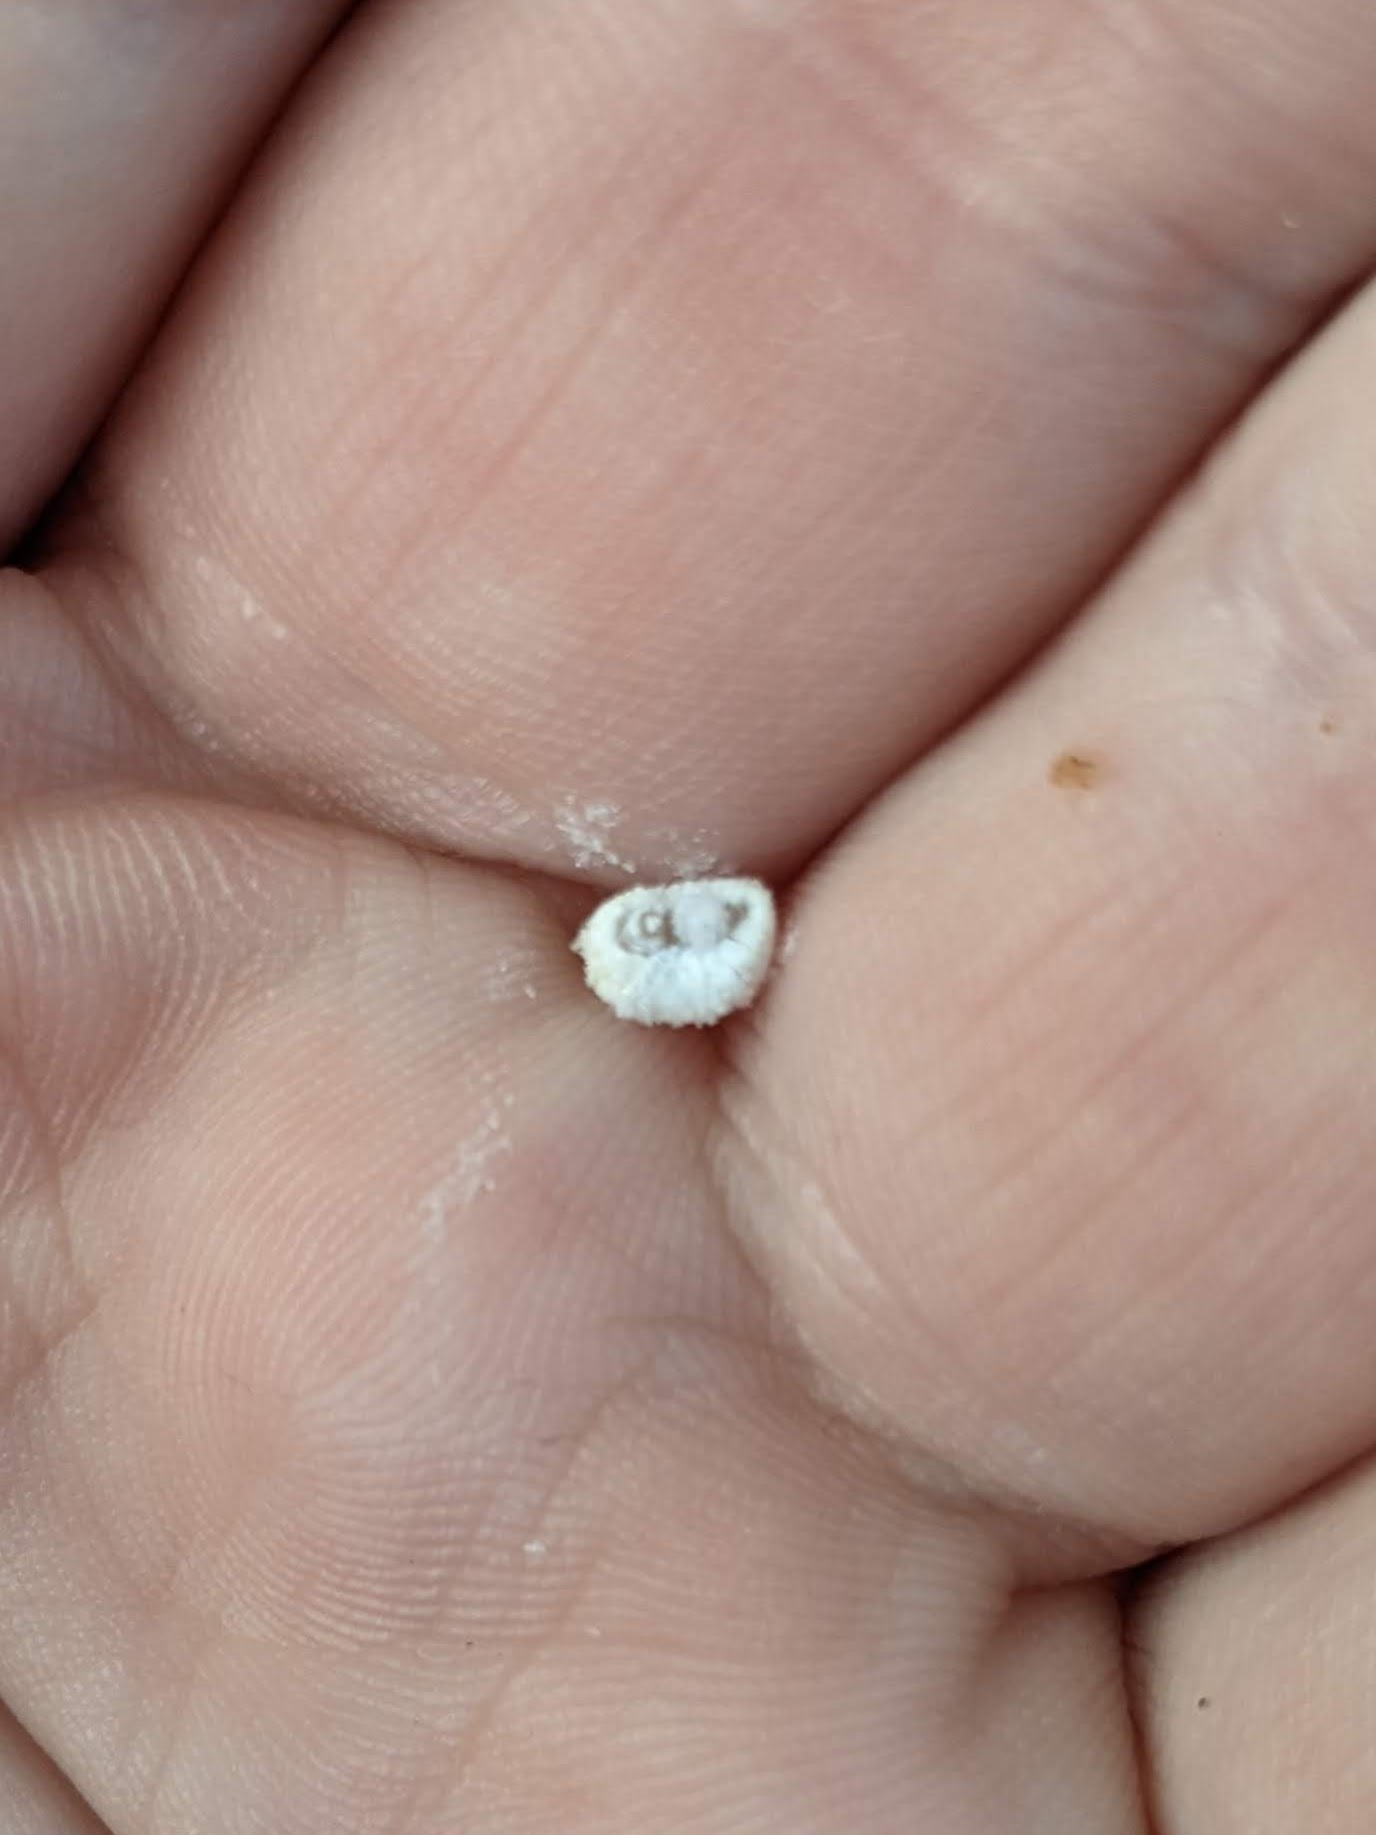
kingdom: Animalia
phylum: Arthropoda
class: Insecta
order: Lepidoptera
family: Epipyropidae
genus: Fulgoraecia
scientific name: Fulgoraecia exigua
